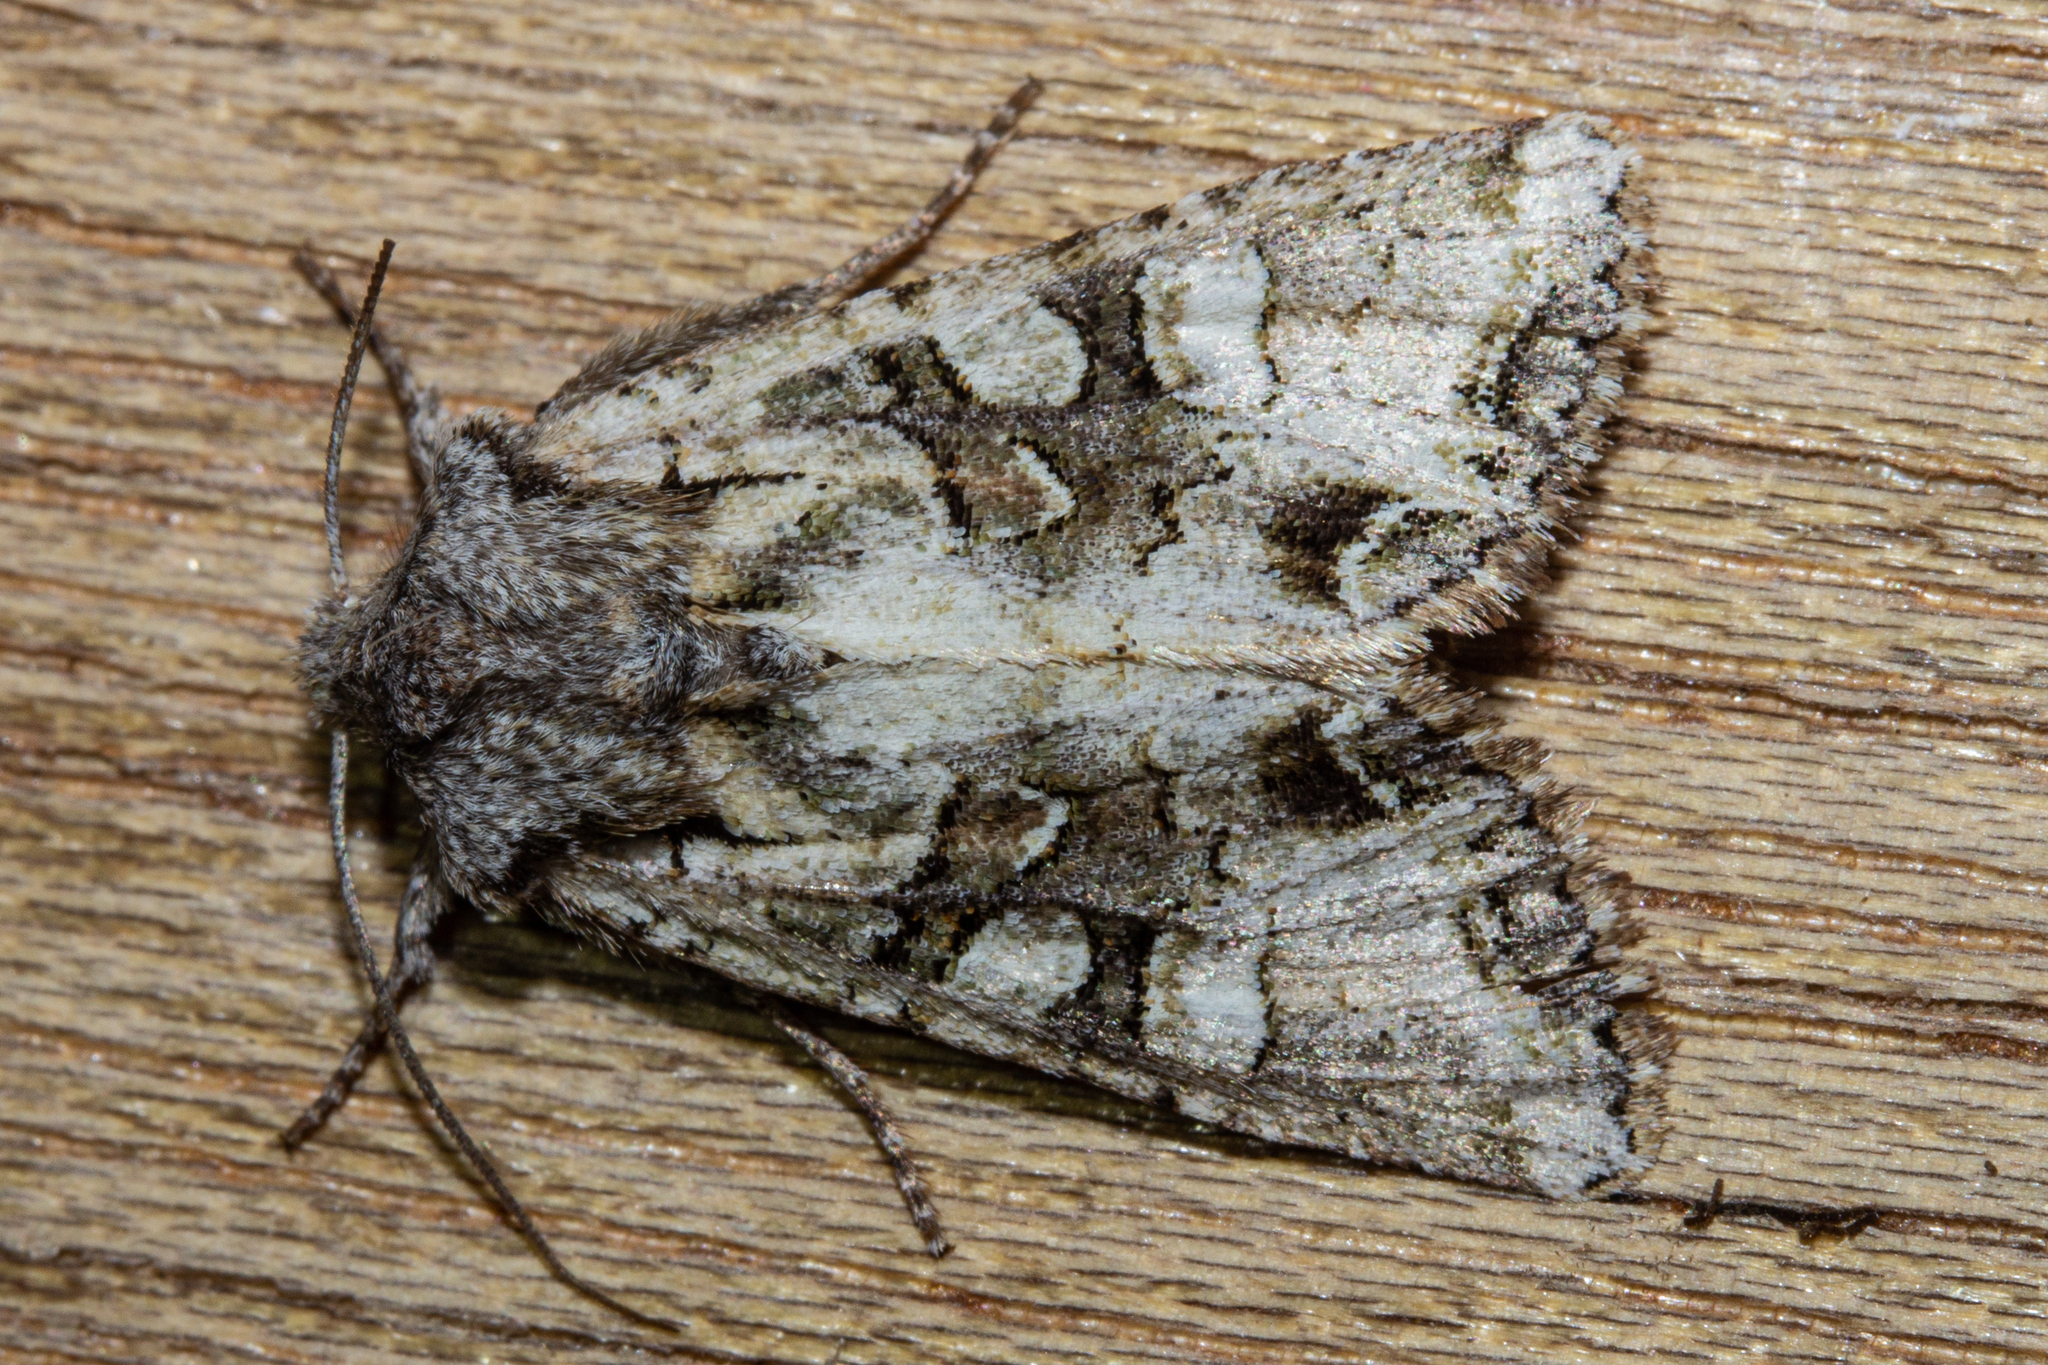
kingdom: Animalia
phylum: Arthropoda
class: Insecta
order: Lepidoptera
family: Noctuidae
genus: Ichneutica
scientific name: Ichneutica skelloni
